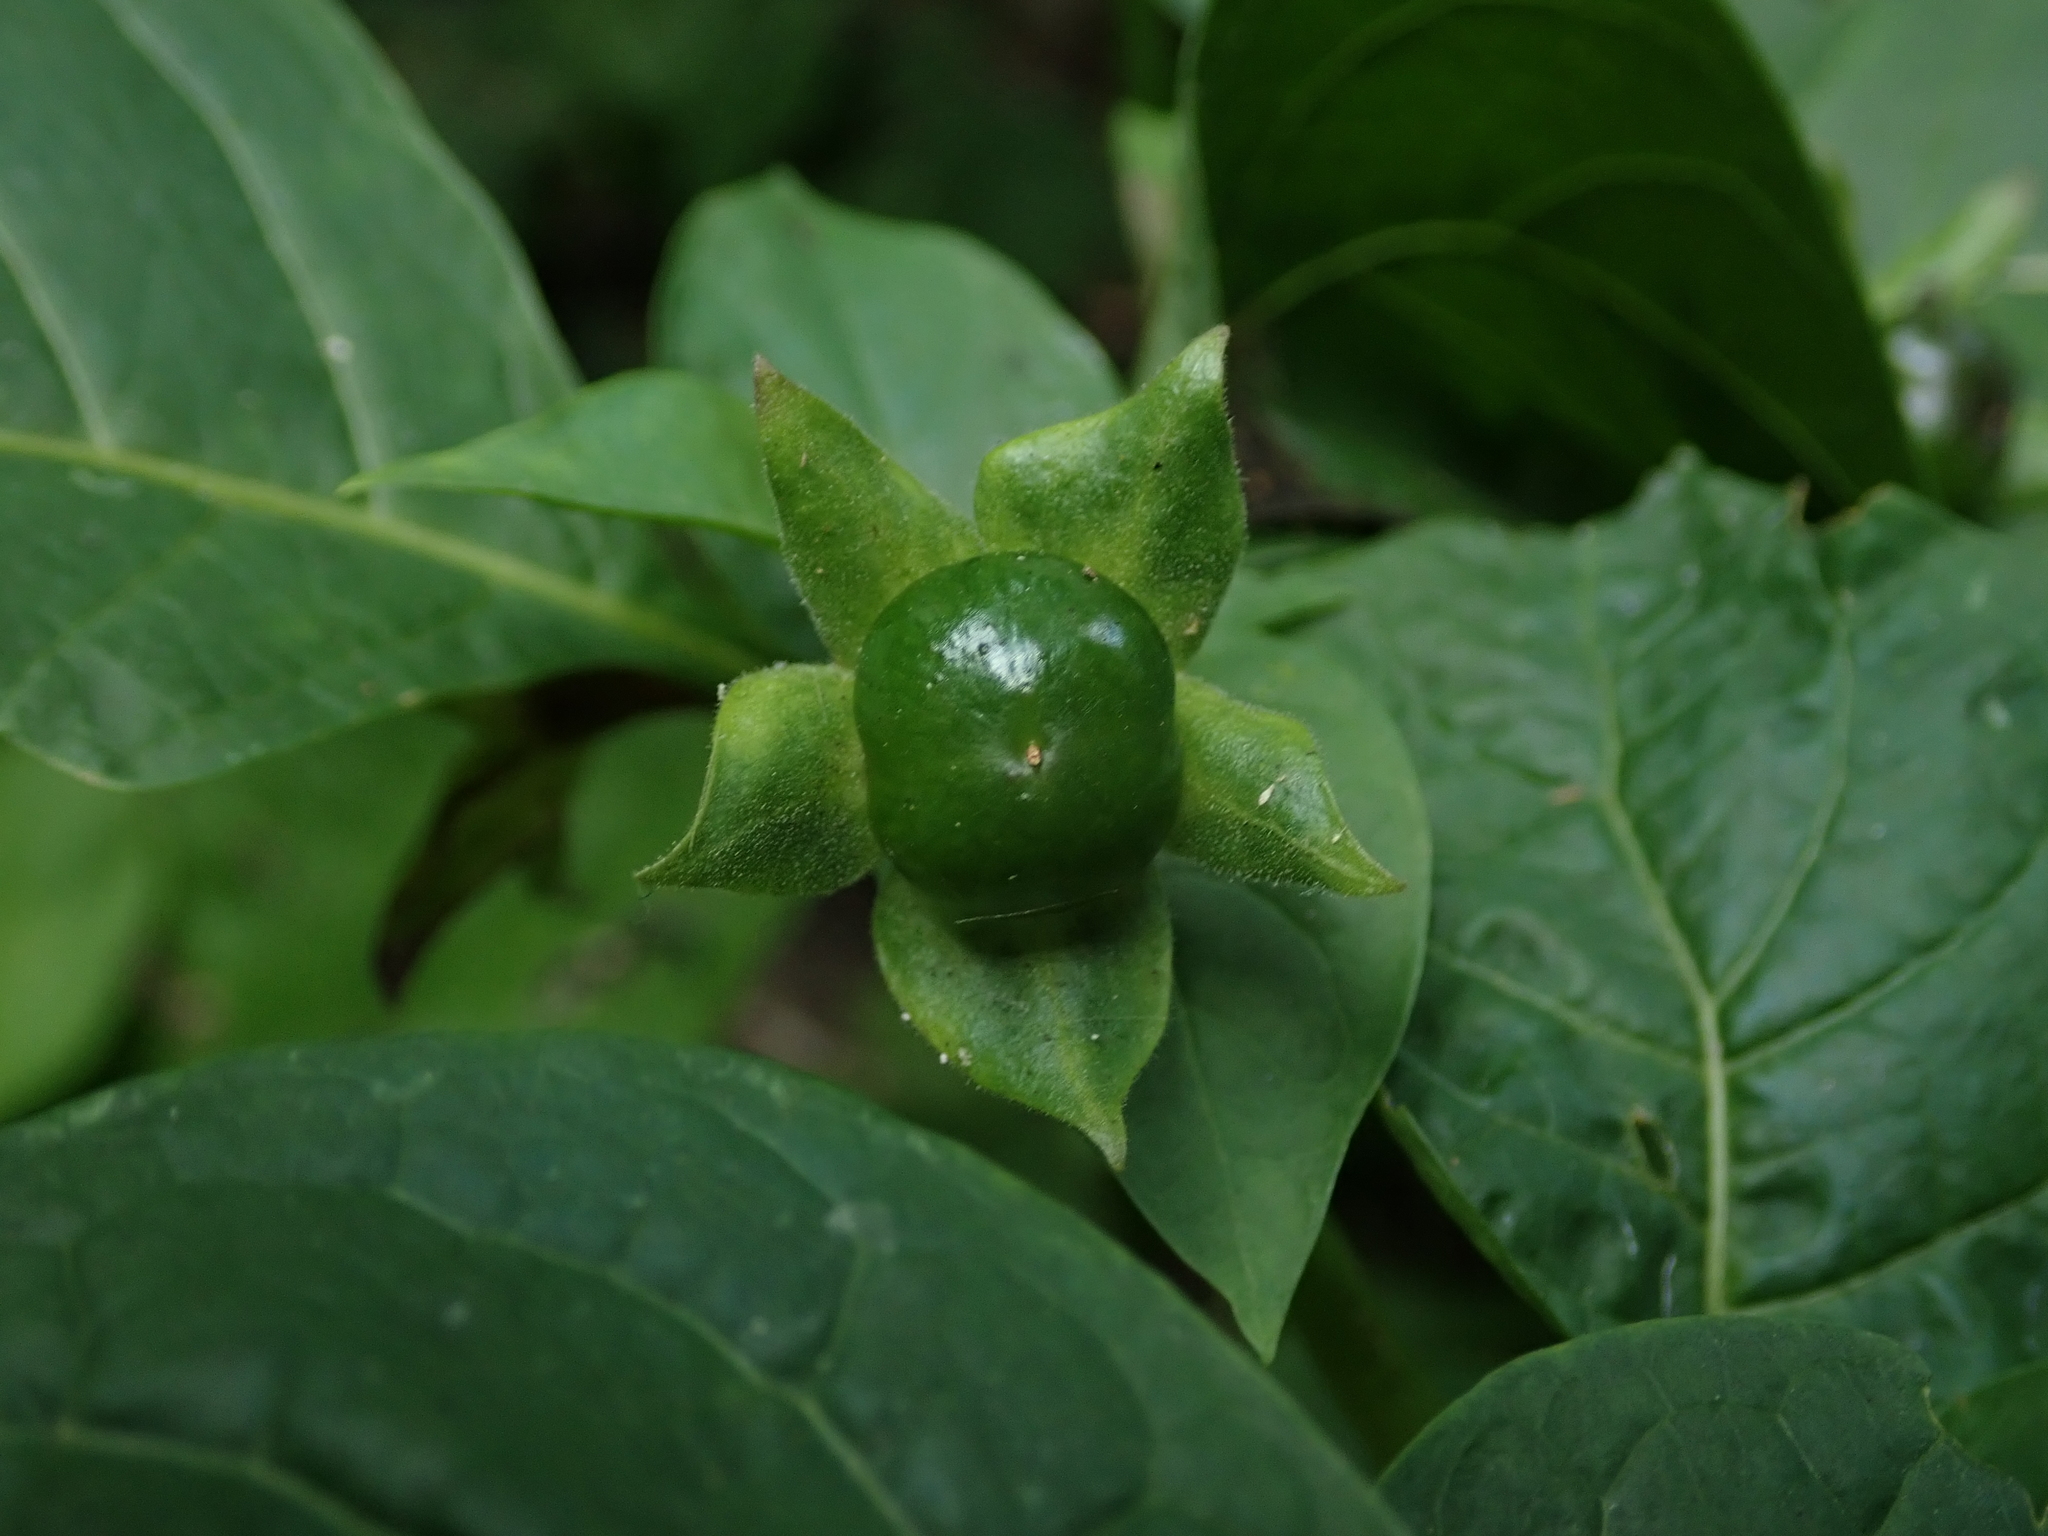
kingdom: Plantae
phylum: Tracheophyta
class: Magnoliopsida
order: Solanales
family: Solanaceae
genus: Atropa
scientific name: Atropa belladonna
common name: Deadly nightshade
